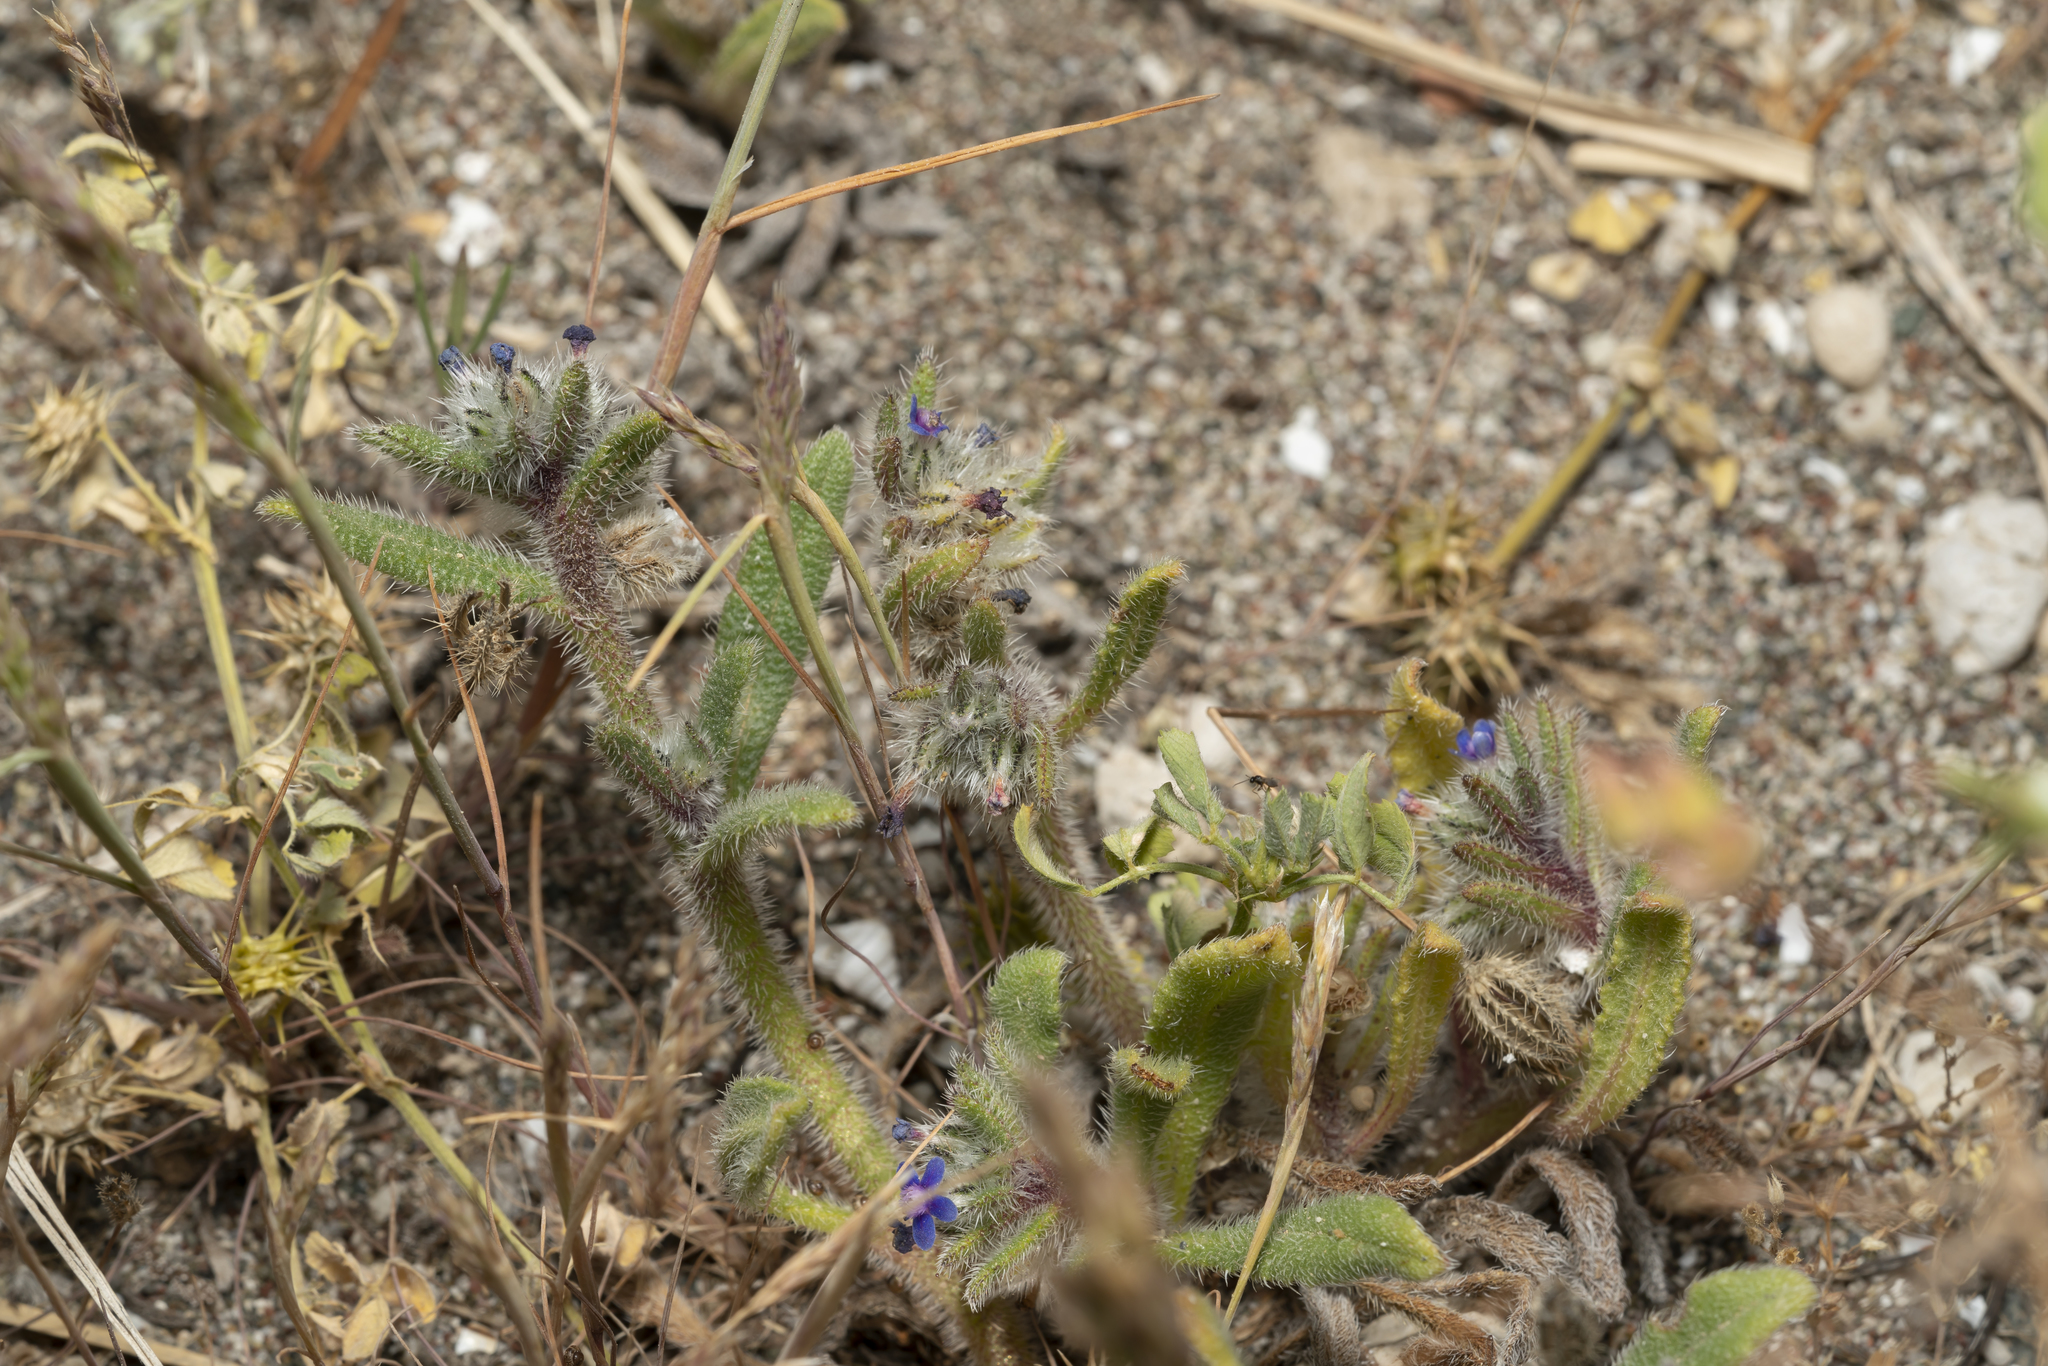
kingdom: Plantae
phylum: Tracheophyta
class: Magnoliopsida
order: Boraginales
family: Boraginaceae
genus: Hormuzakia
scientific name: Hormuzakia aggregata
